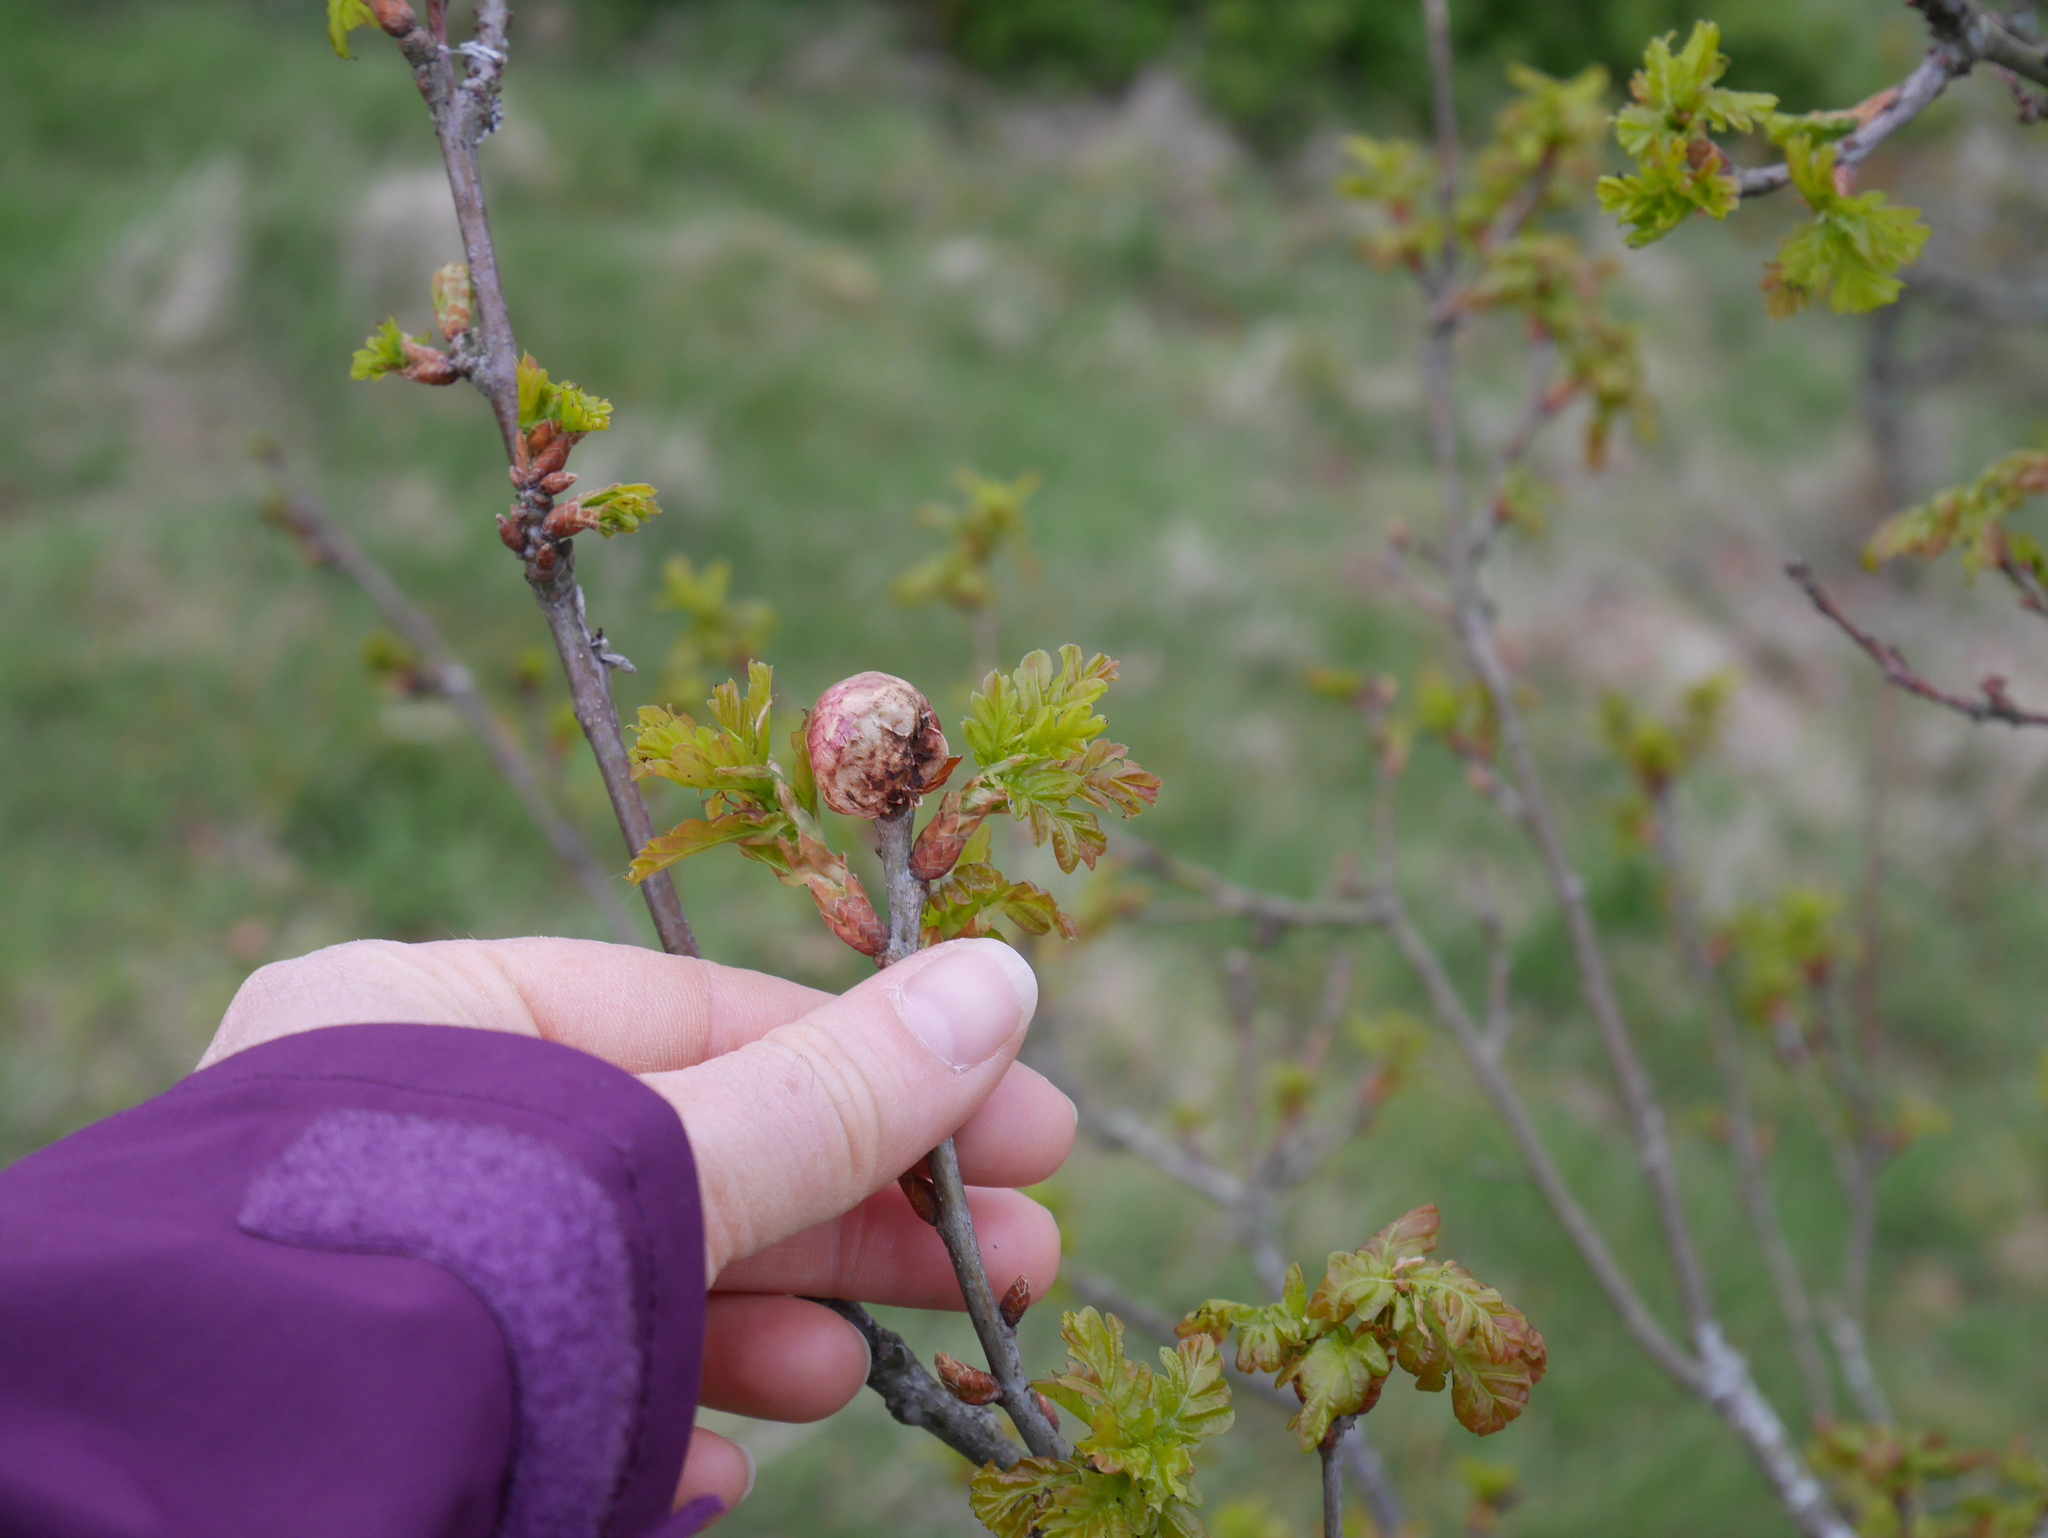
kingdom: Animalia
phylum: Arthropoda
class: Insecta
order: Hymenoptera
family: Cynipidae
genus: Biorhiza
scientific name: Biorhiza pallida
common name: Oak apple
